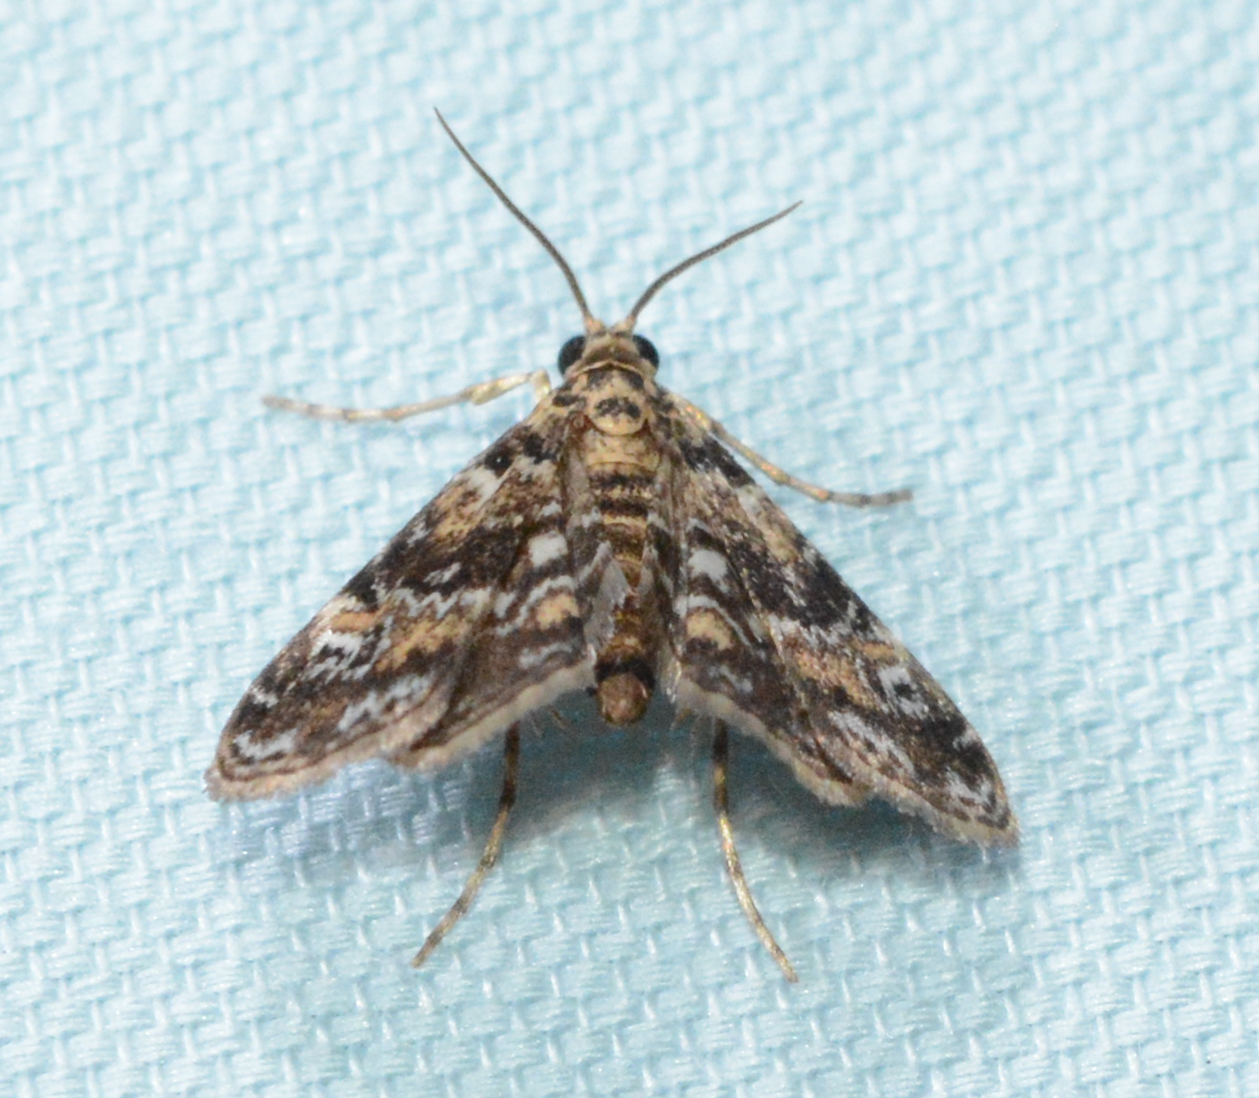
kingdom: Animalia
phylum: Arthropoda
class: Insecta
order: Lepidoptera
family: Crambidae
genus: Elophila
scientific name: Elophila obliteralis
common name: Waterlily leafcutter moth
